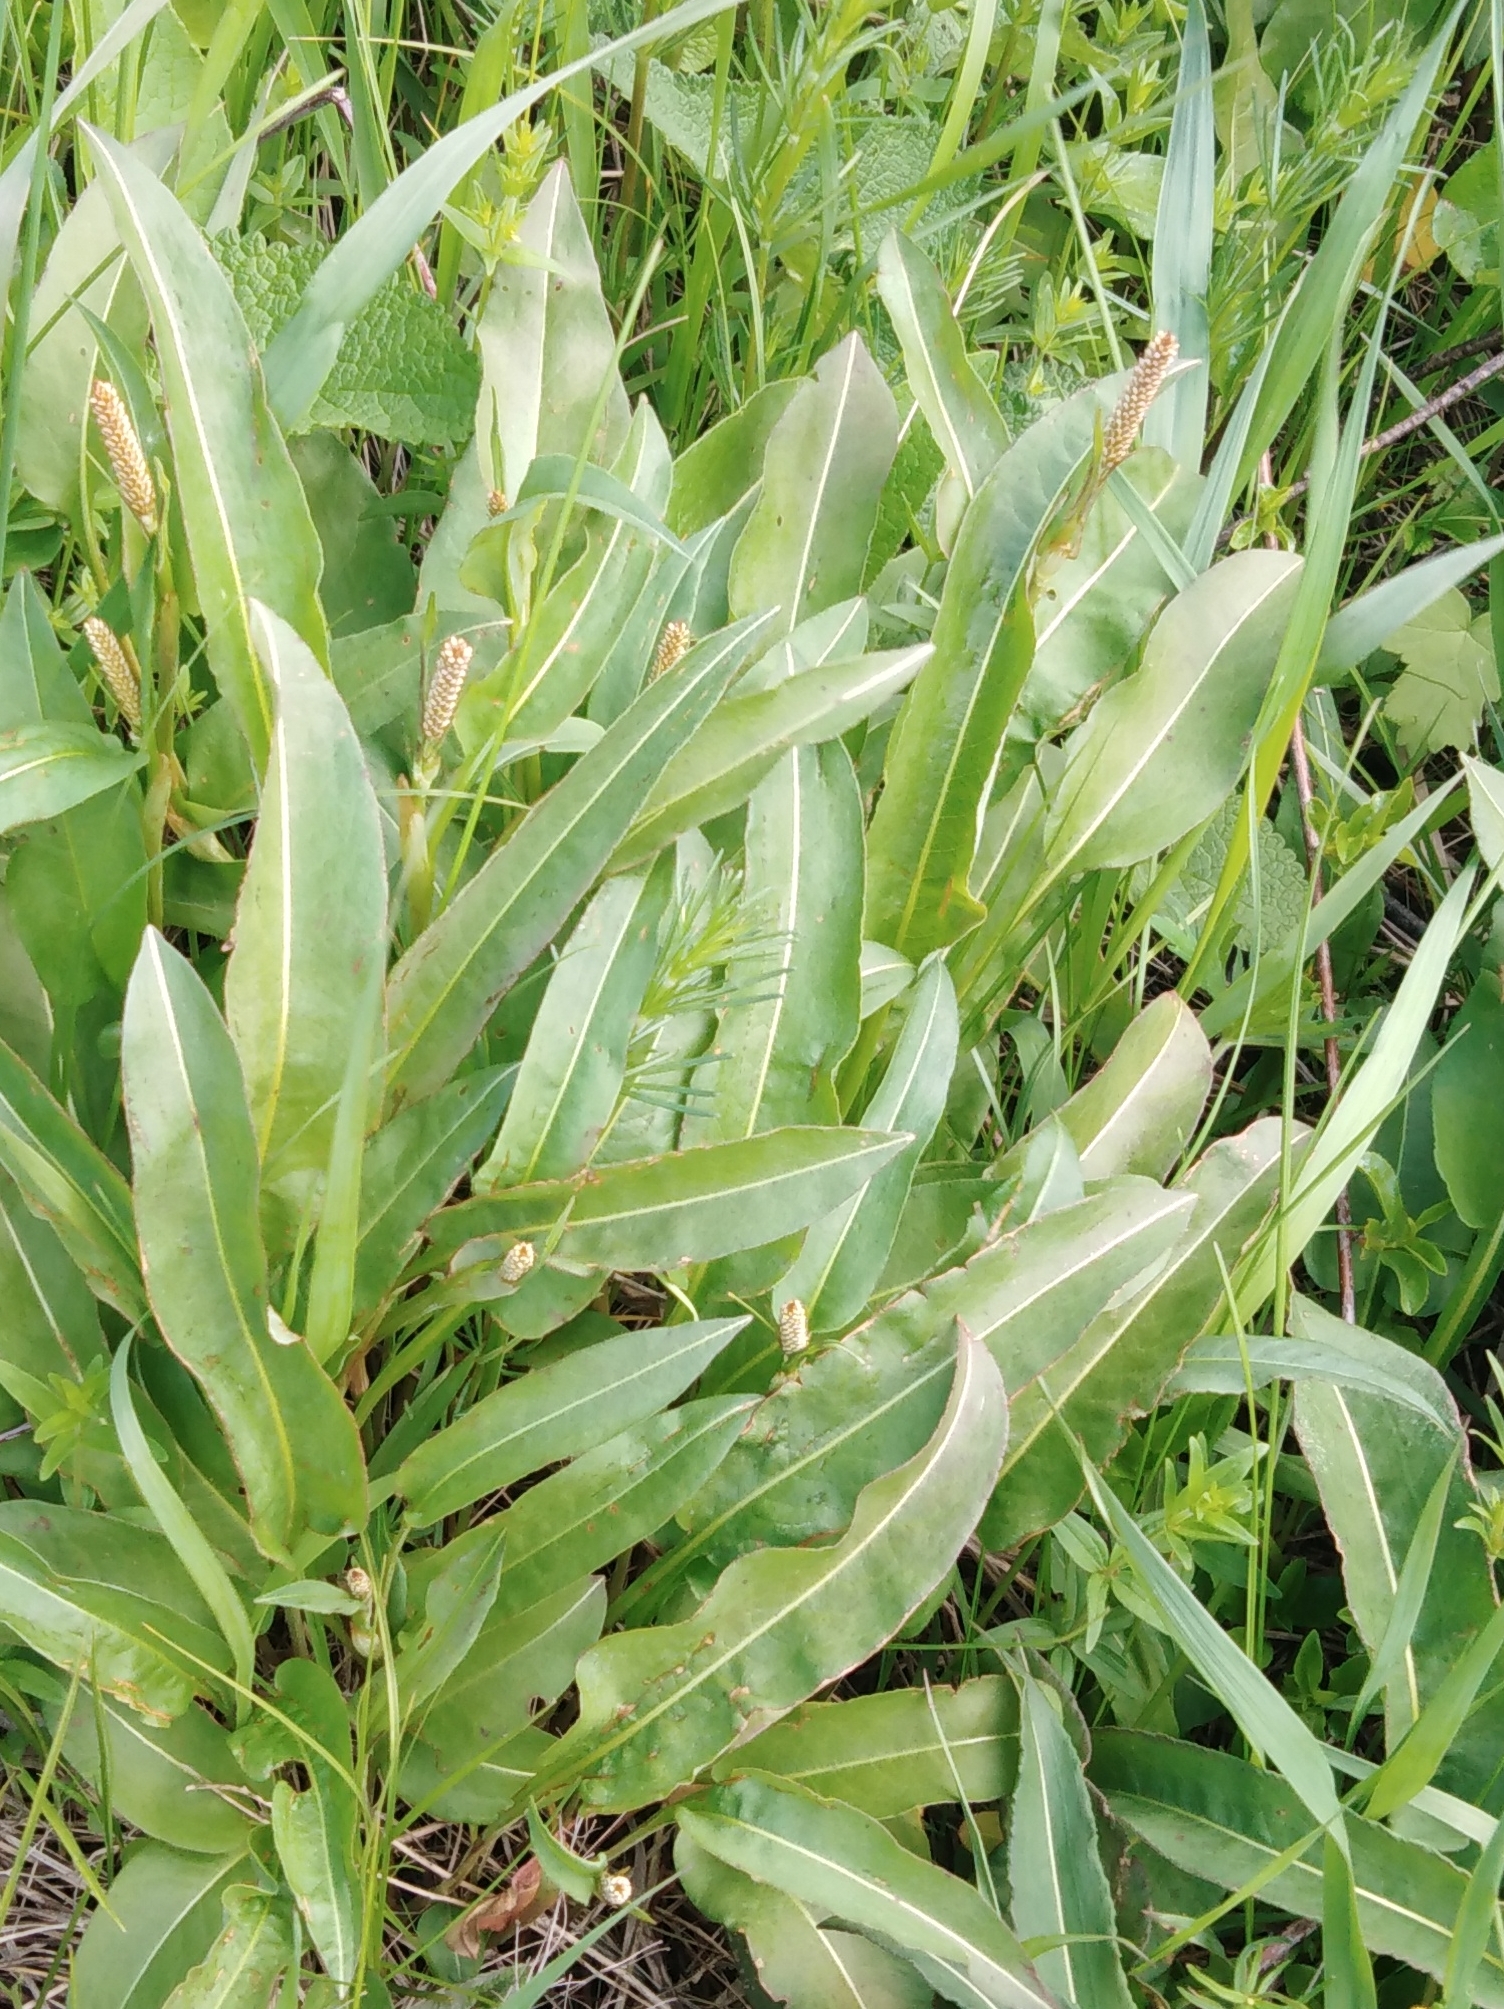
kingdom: Plantae
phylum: Tracheophyta
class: Magnoliopsida
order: Caryophyllales
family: Polygonaceae
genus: Bistorta
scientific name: Bistorta officinalis
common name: Common bistort
